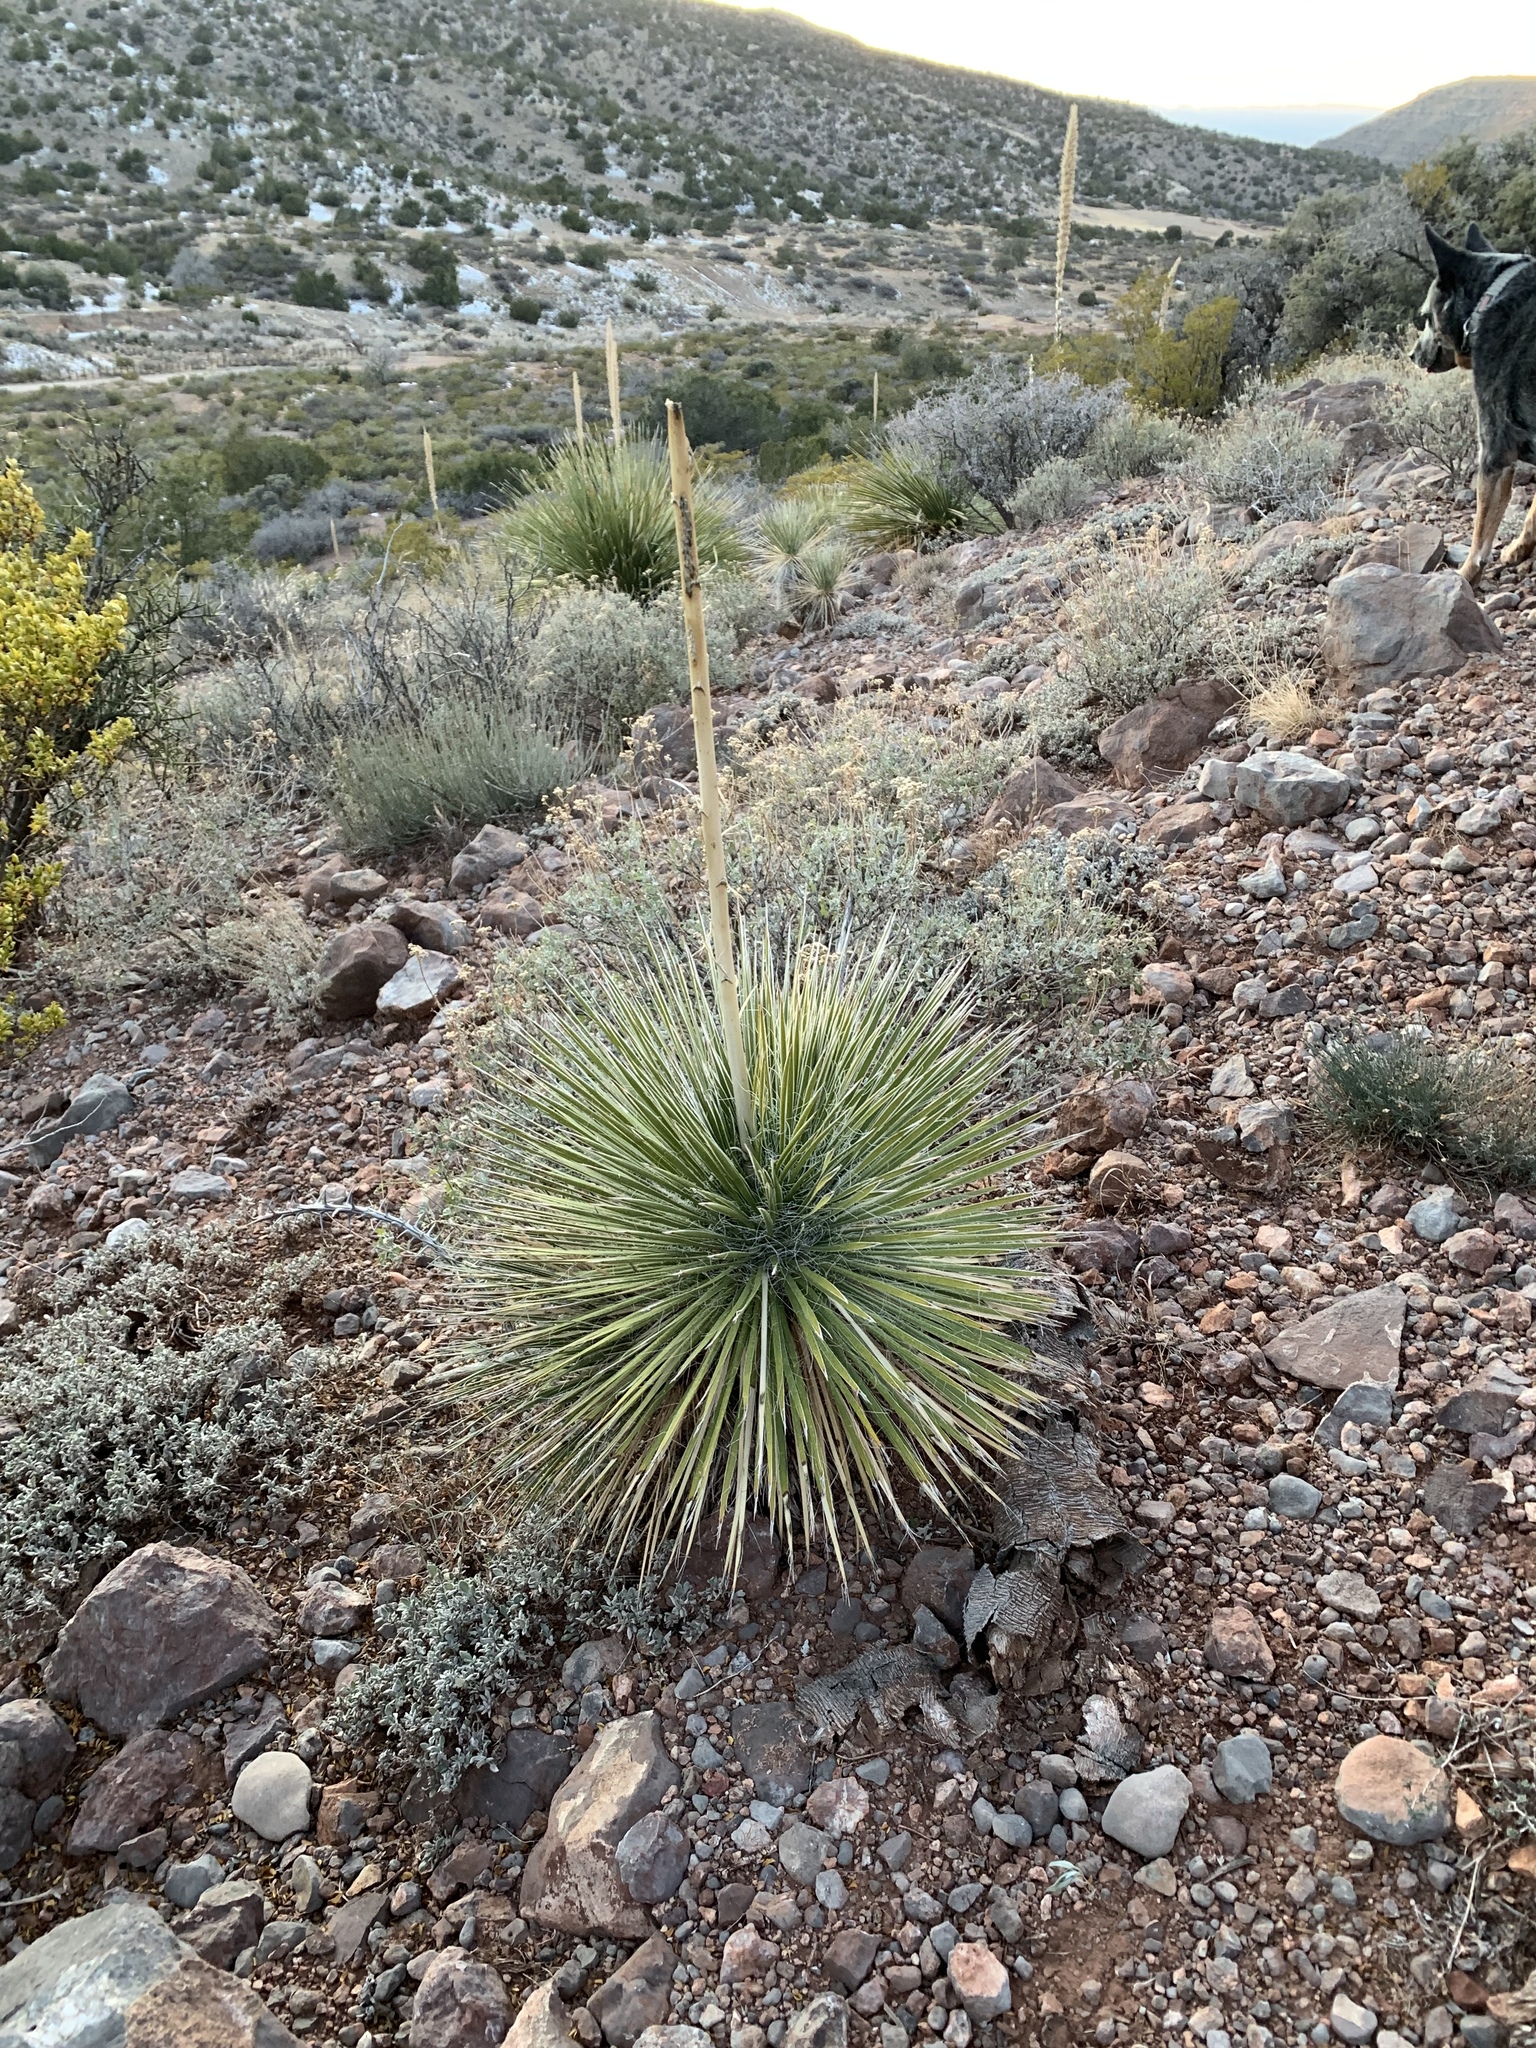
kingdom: Plantae
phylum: Tracheophyta
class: Liliopsida
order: Asparagales
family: Asparagaceae
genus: Yucca
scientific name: Yucca elata
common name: Palmella
